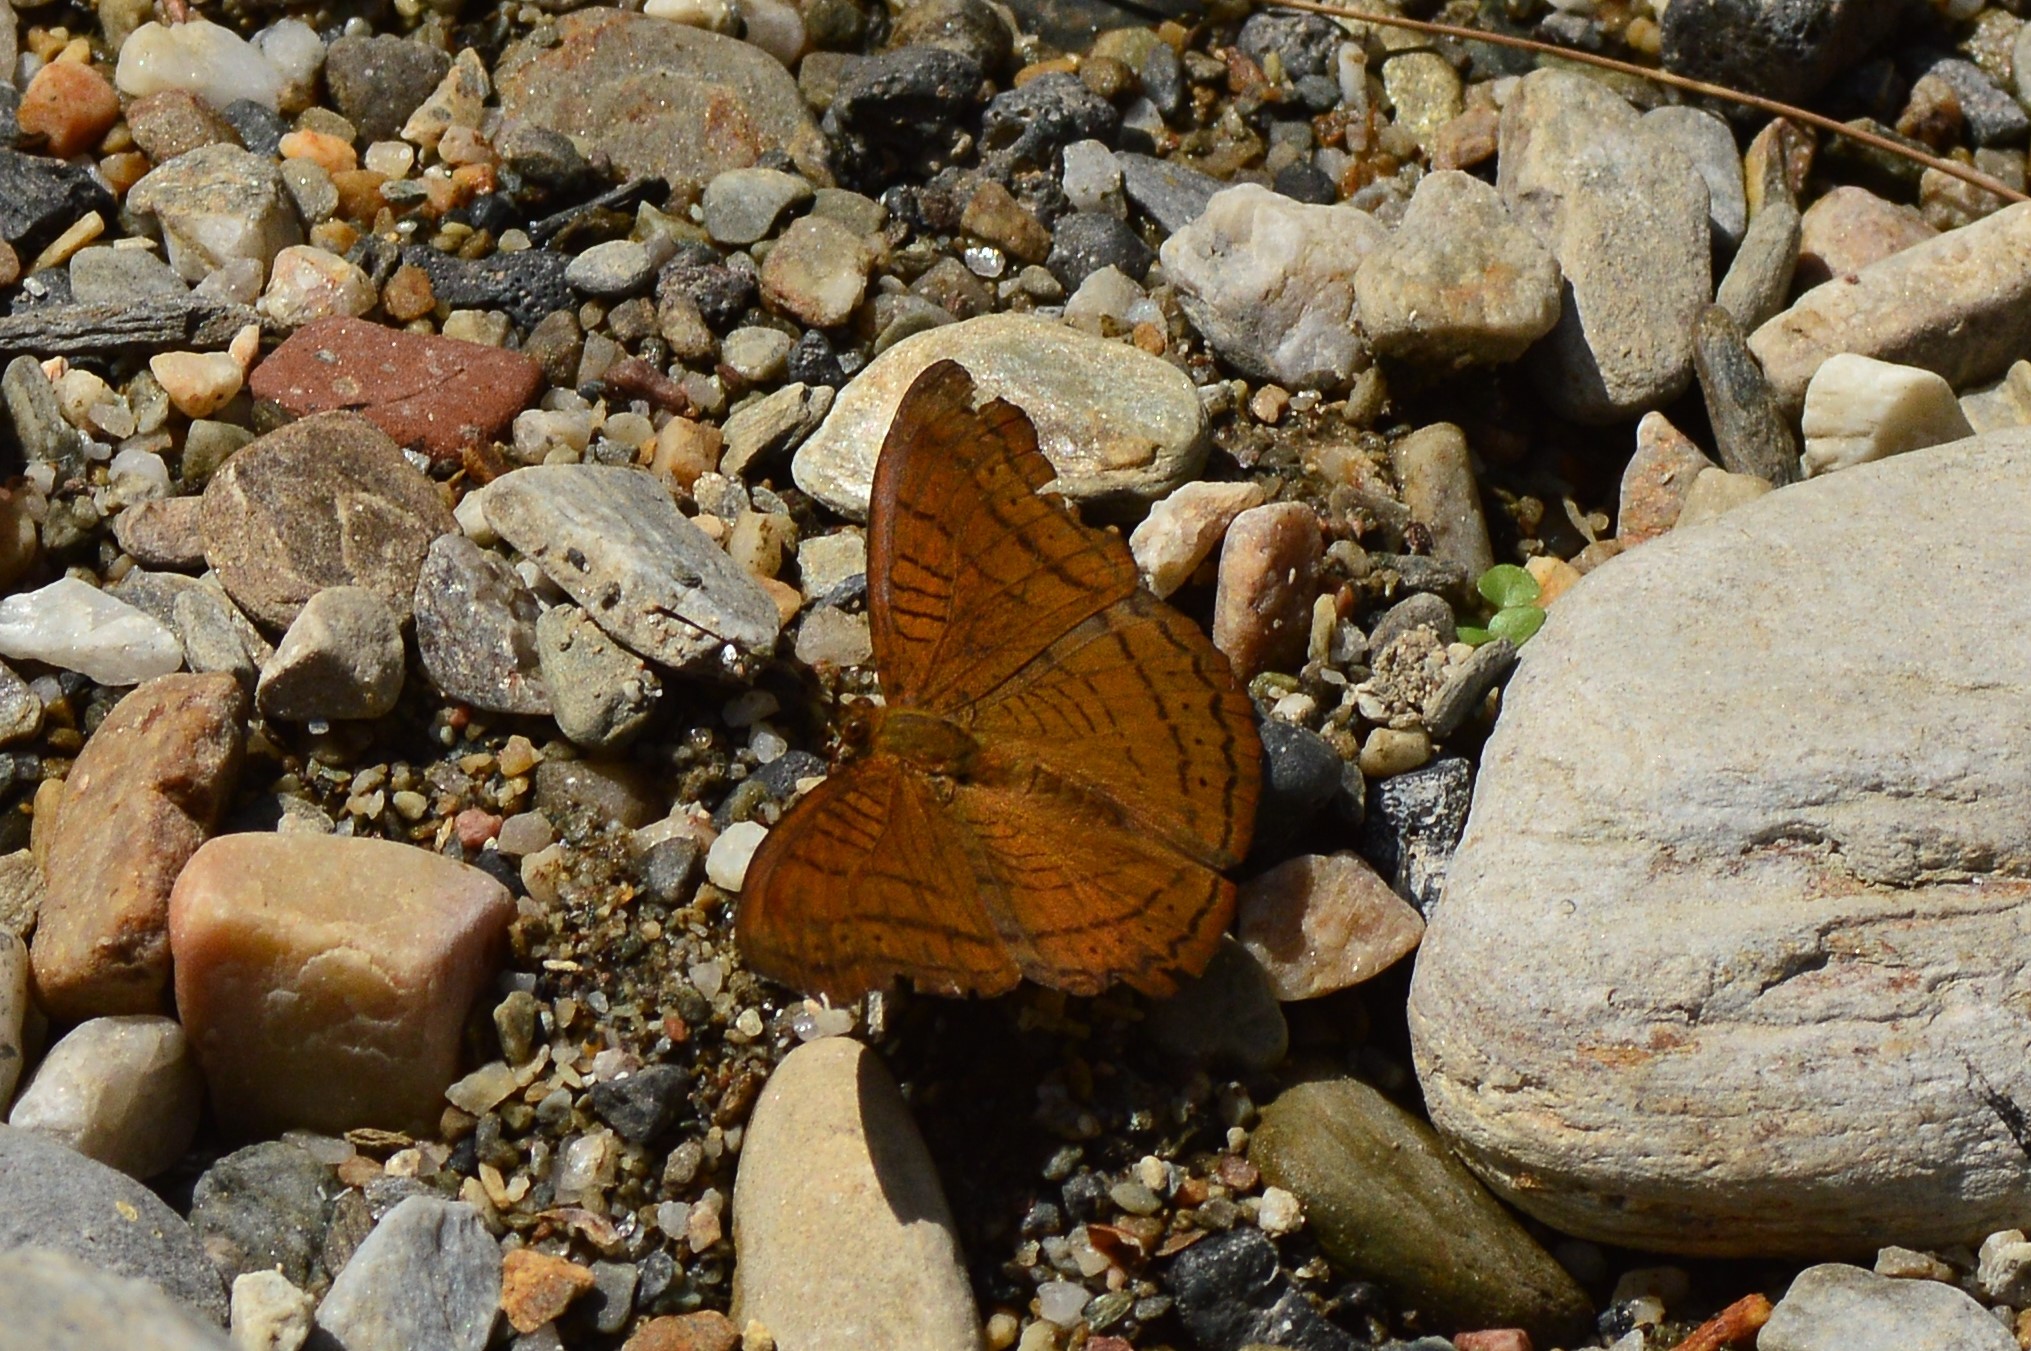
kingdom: Animalia
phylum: Arthropoda
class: Insecta
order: Lepidoptera
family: Nymphalidae
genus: Pseudergolis
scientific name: Pseudergolis wedah
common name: Tabby
